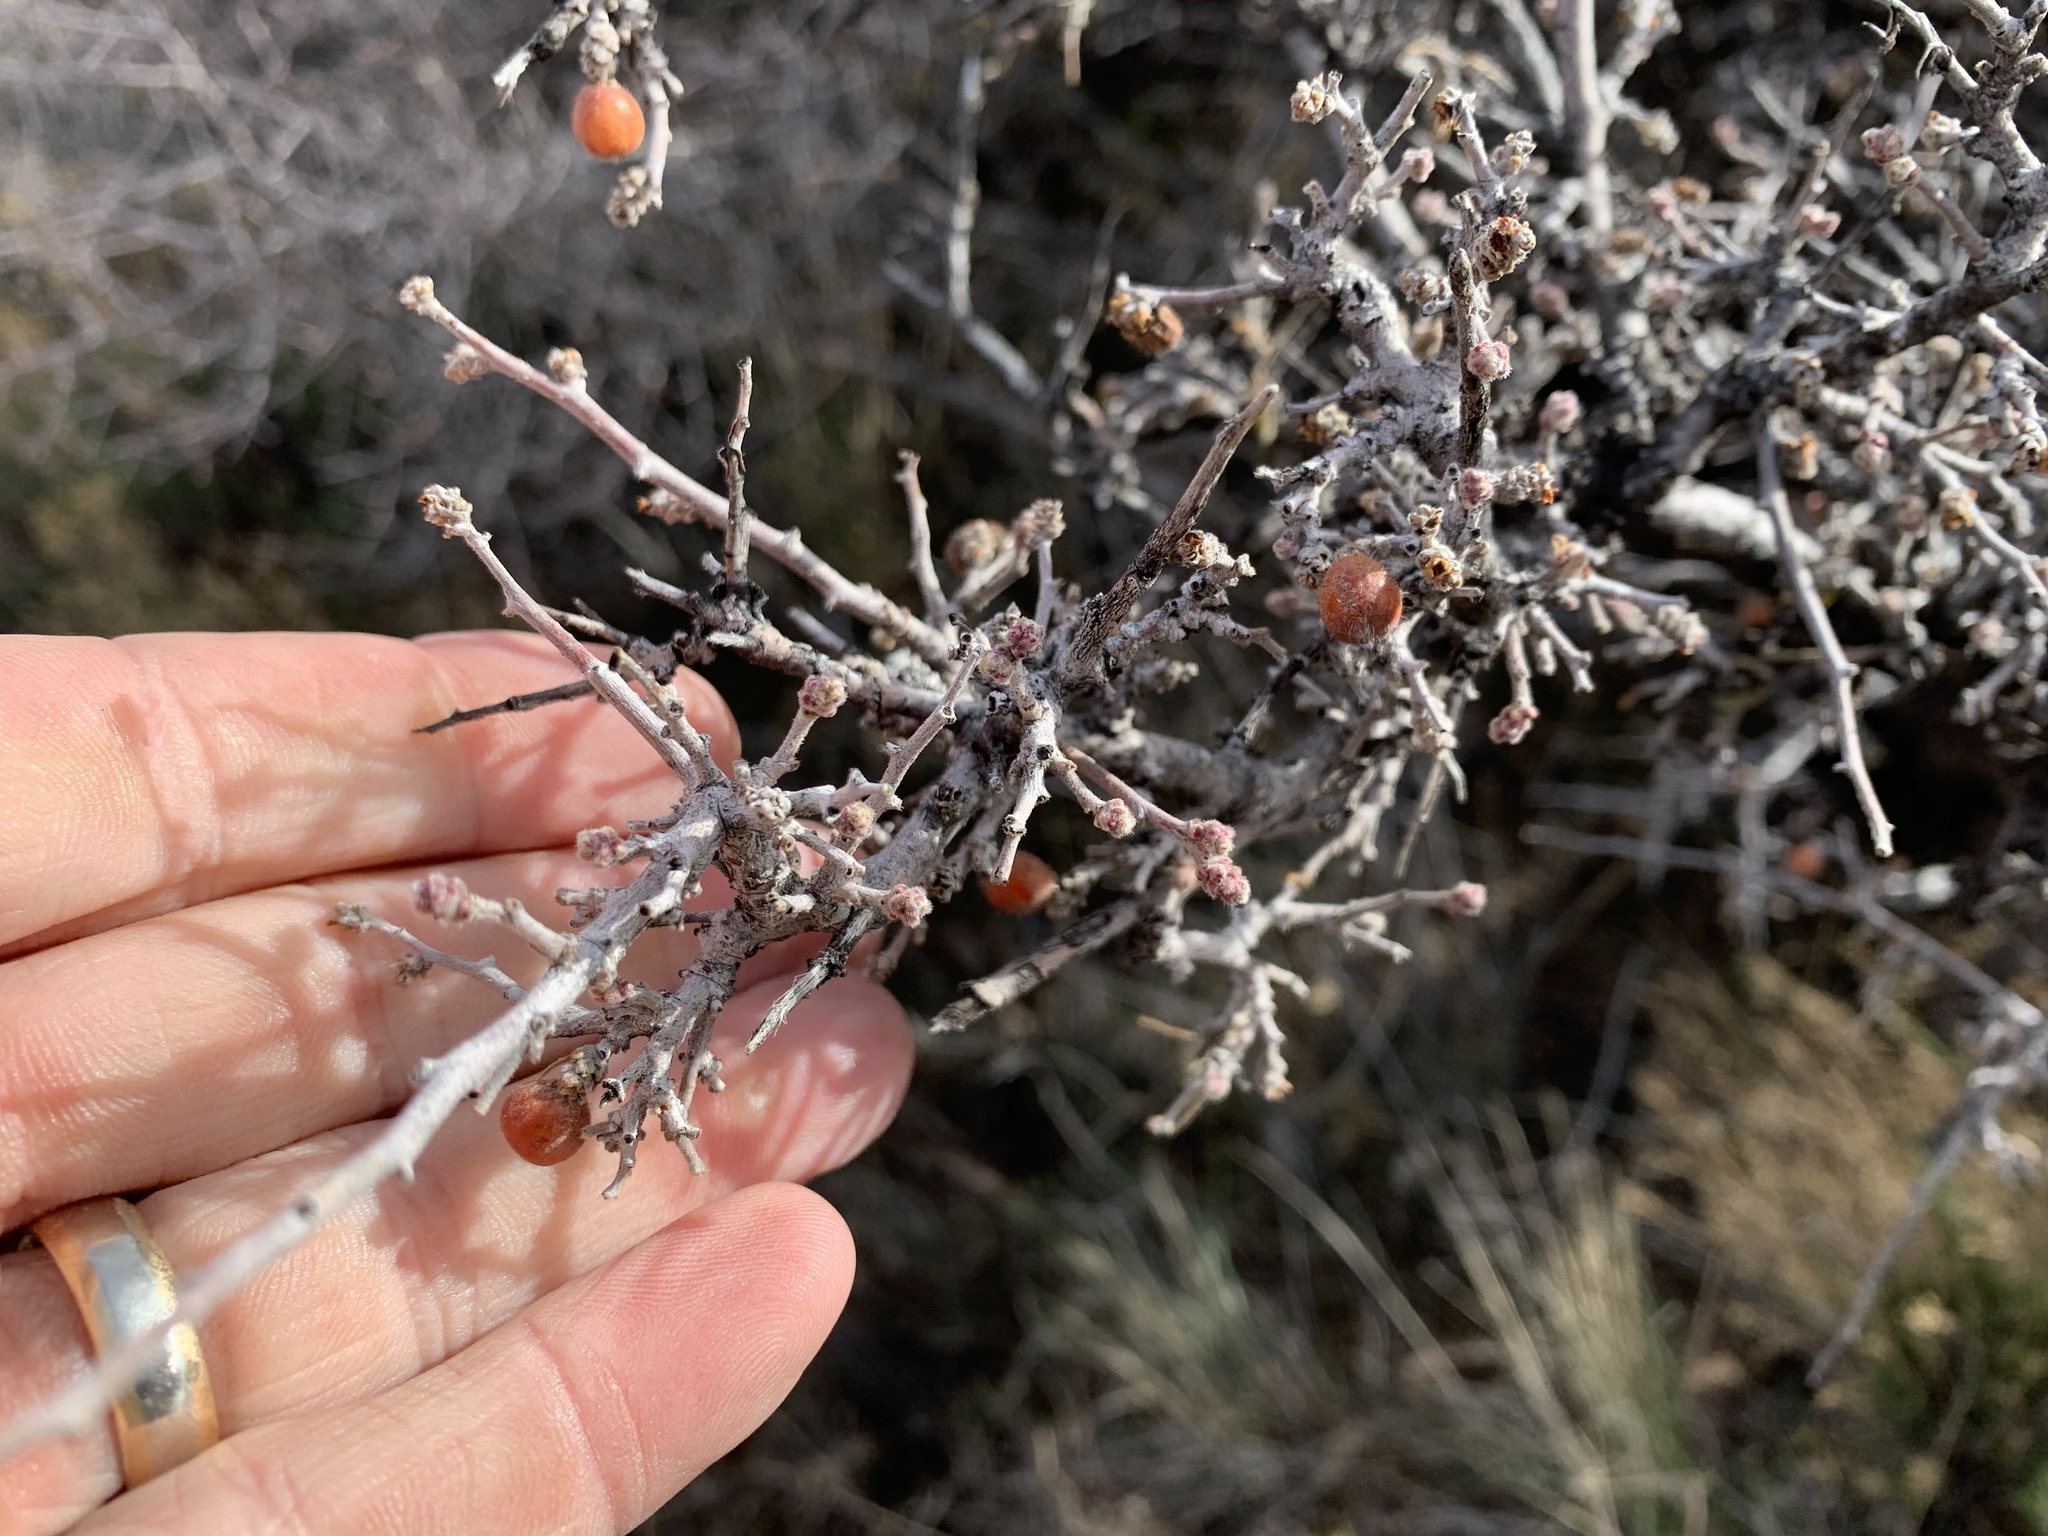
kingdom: Plantae
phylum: Tracheophyta
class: Magnoliopsida
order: Sapindales
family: Anacardiaceae
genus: Rhus
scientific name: Rhus microphylla
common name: Desert sumac
